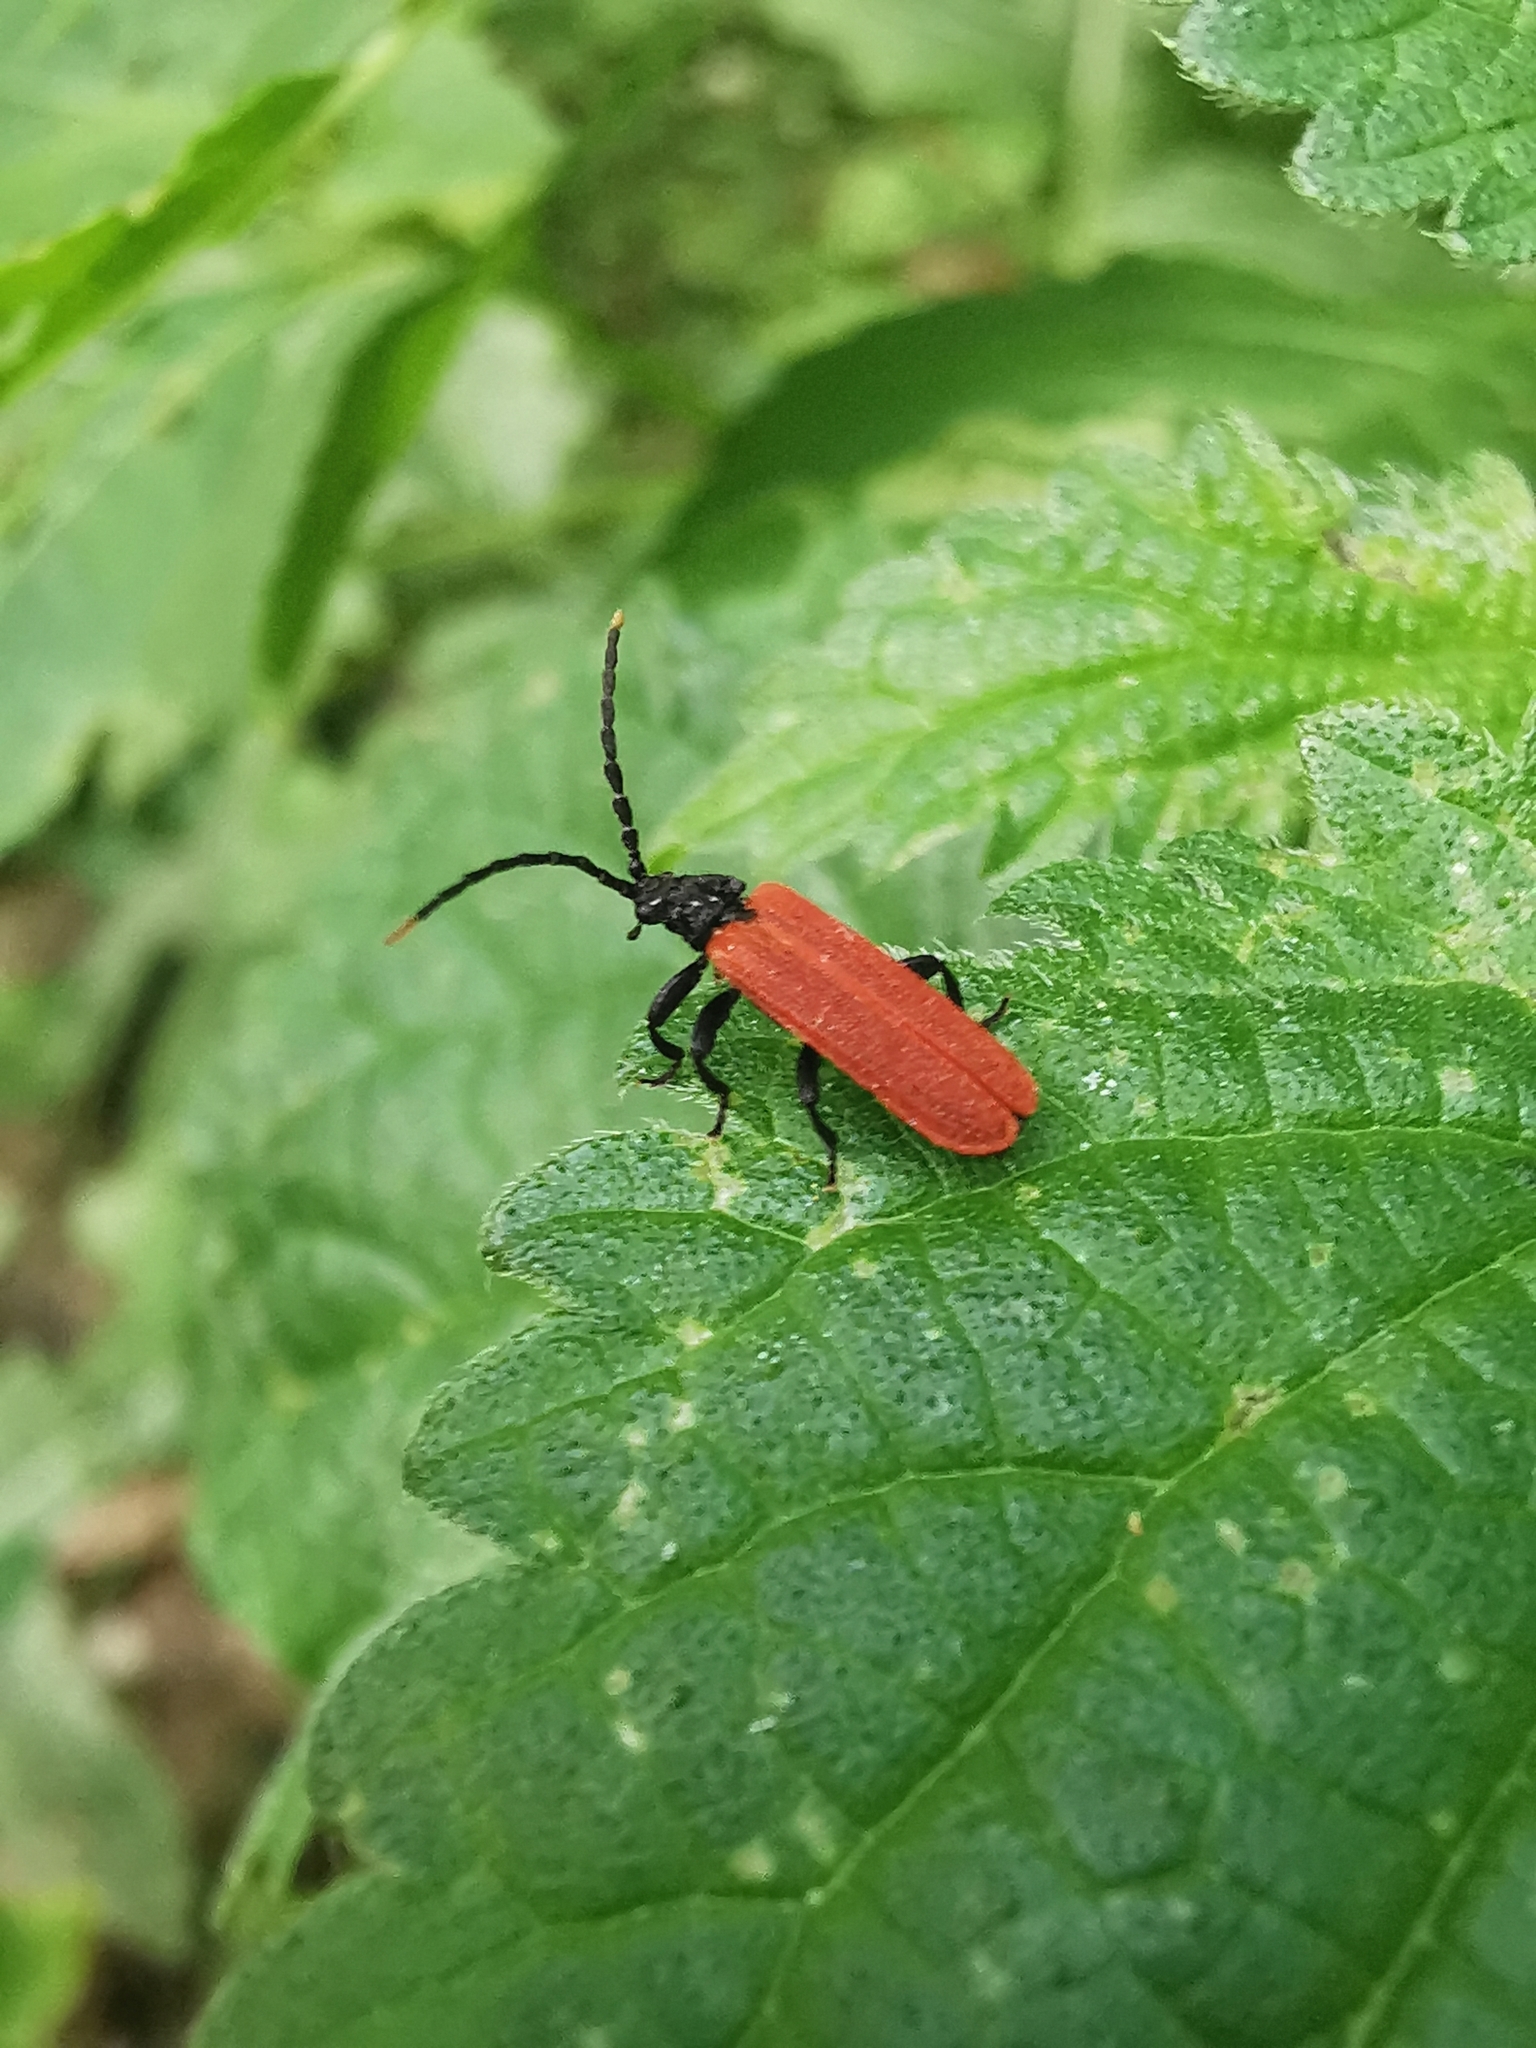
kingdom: Animalia
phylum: Arthropoda
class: Insecta
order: Coleoptera
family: Lycidae
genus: Platycis
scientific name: Platycis minutus
